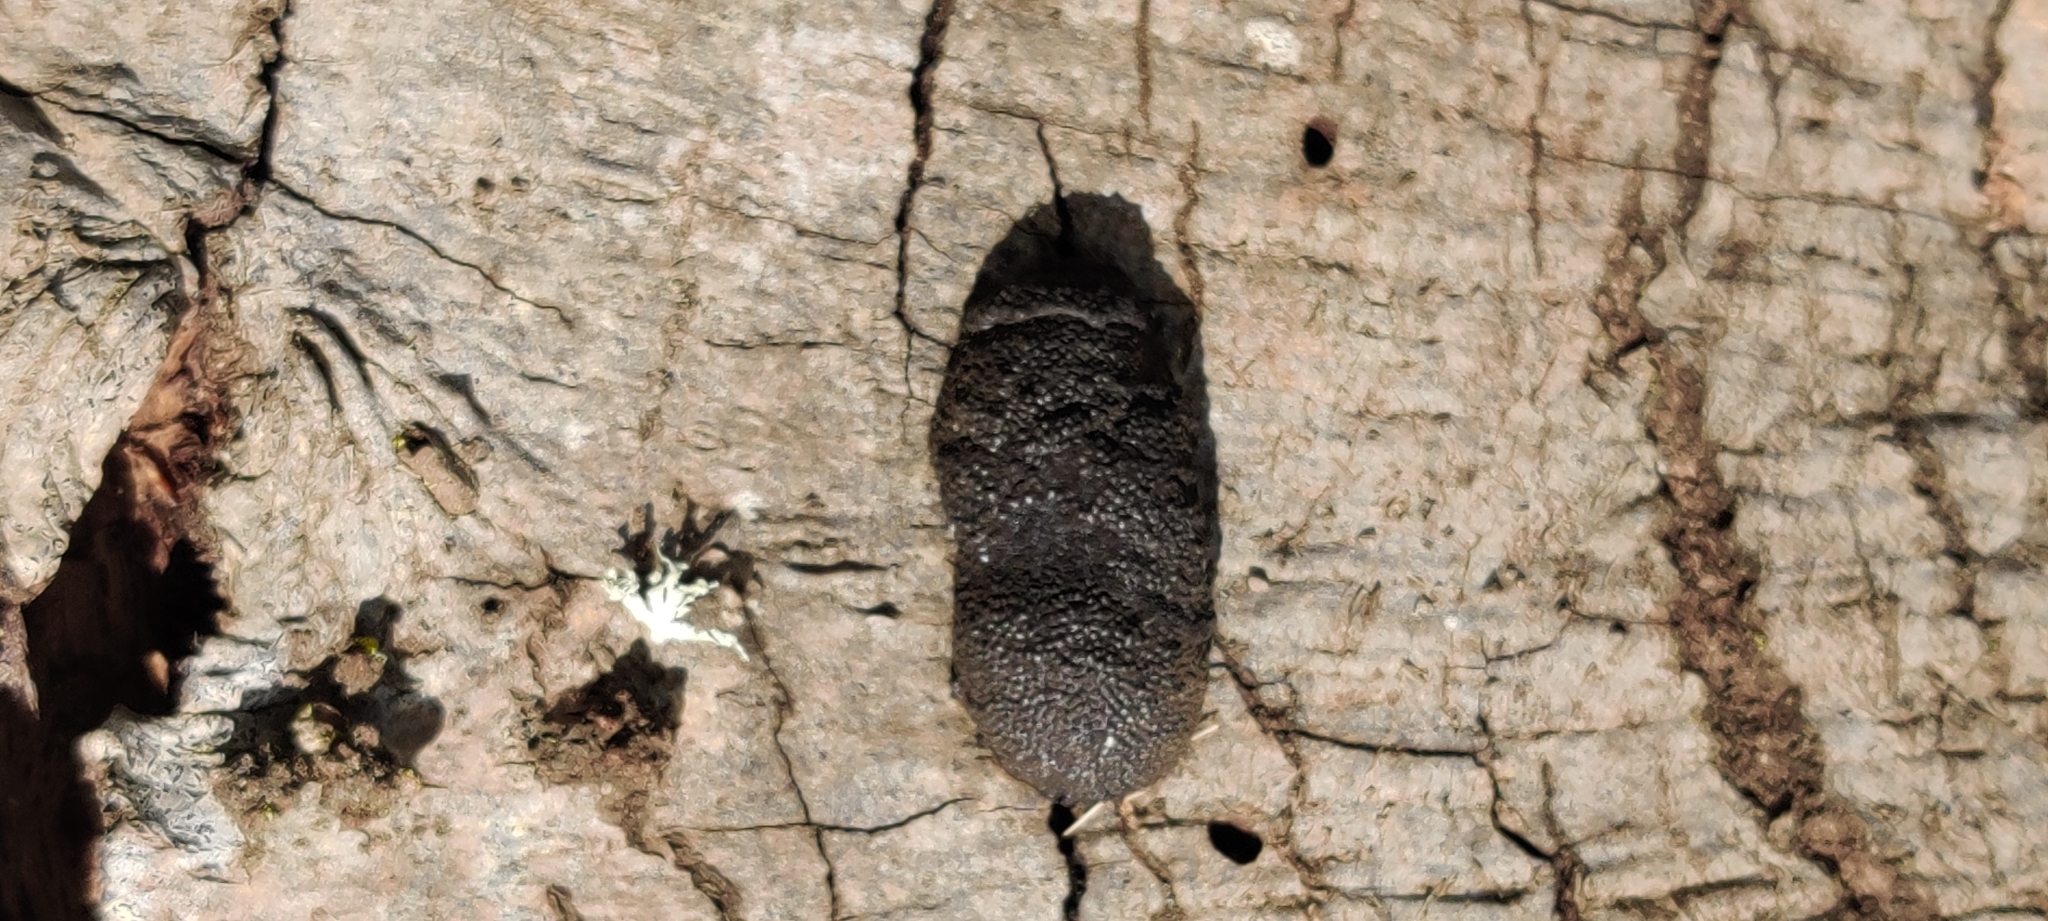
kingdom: Fungi
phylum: Ascomycota
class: Sordariomycetes
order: Xylariales
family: Hypoxylaceae
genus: Annulohypoxylon
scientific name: Annulohypoxylon thouarsianum
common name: Cramp balls
